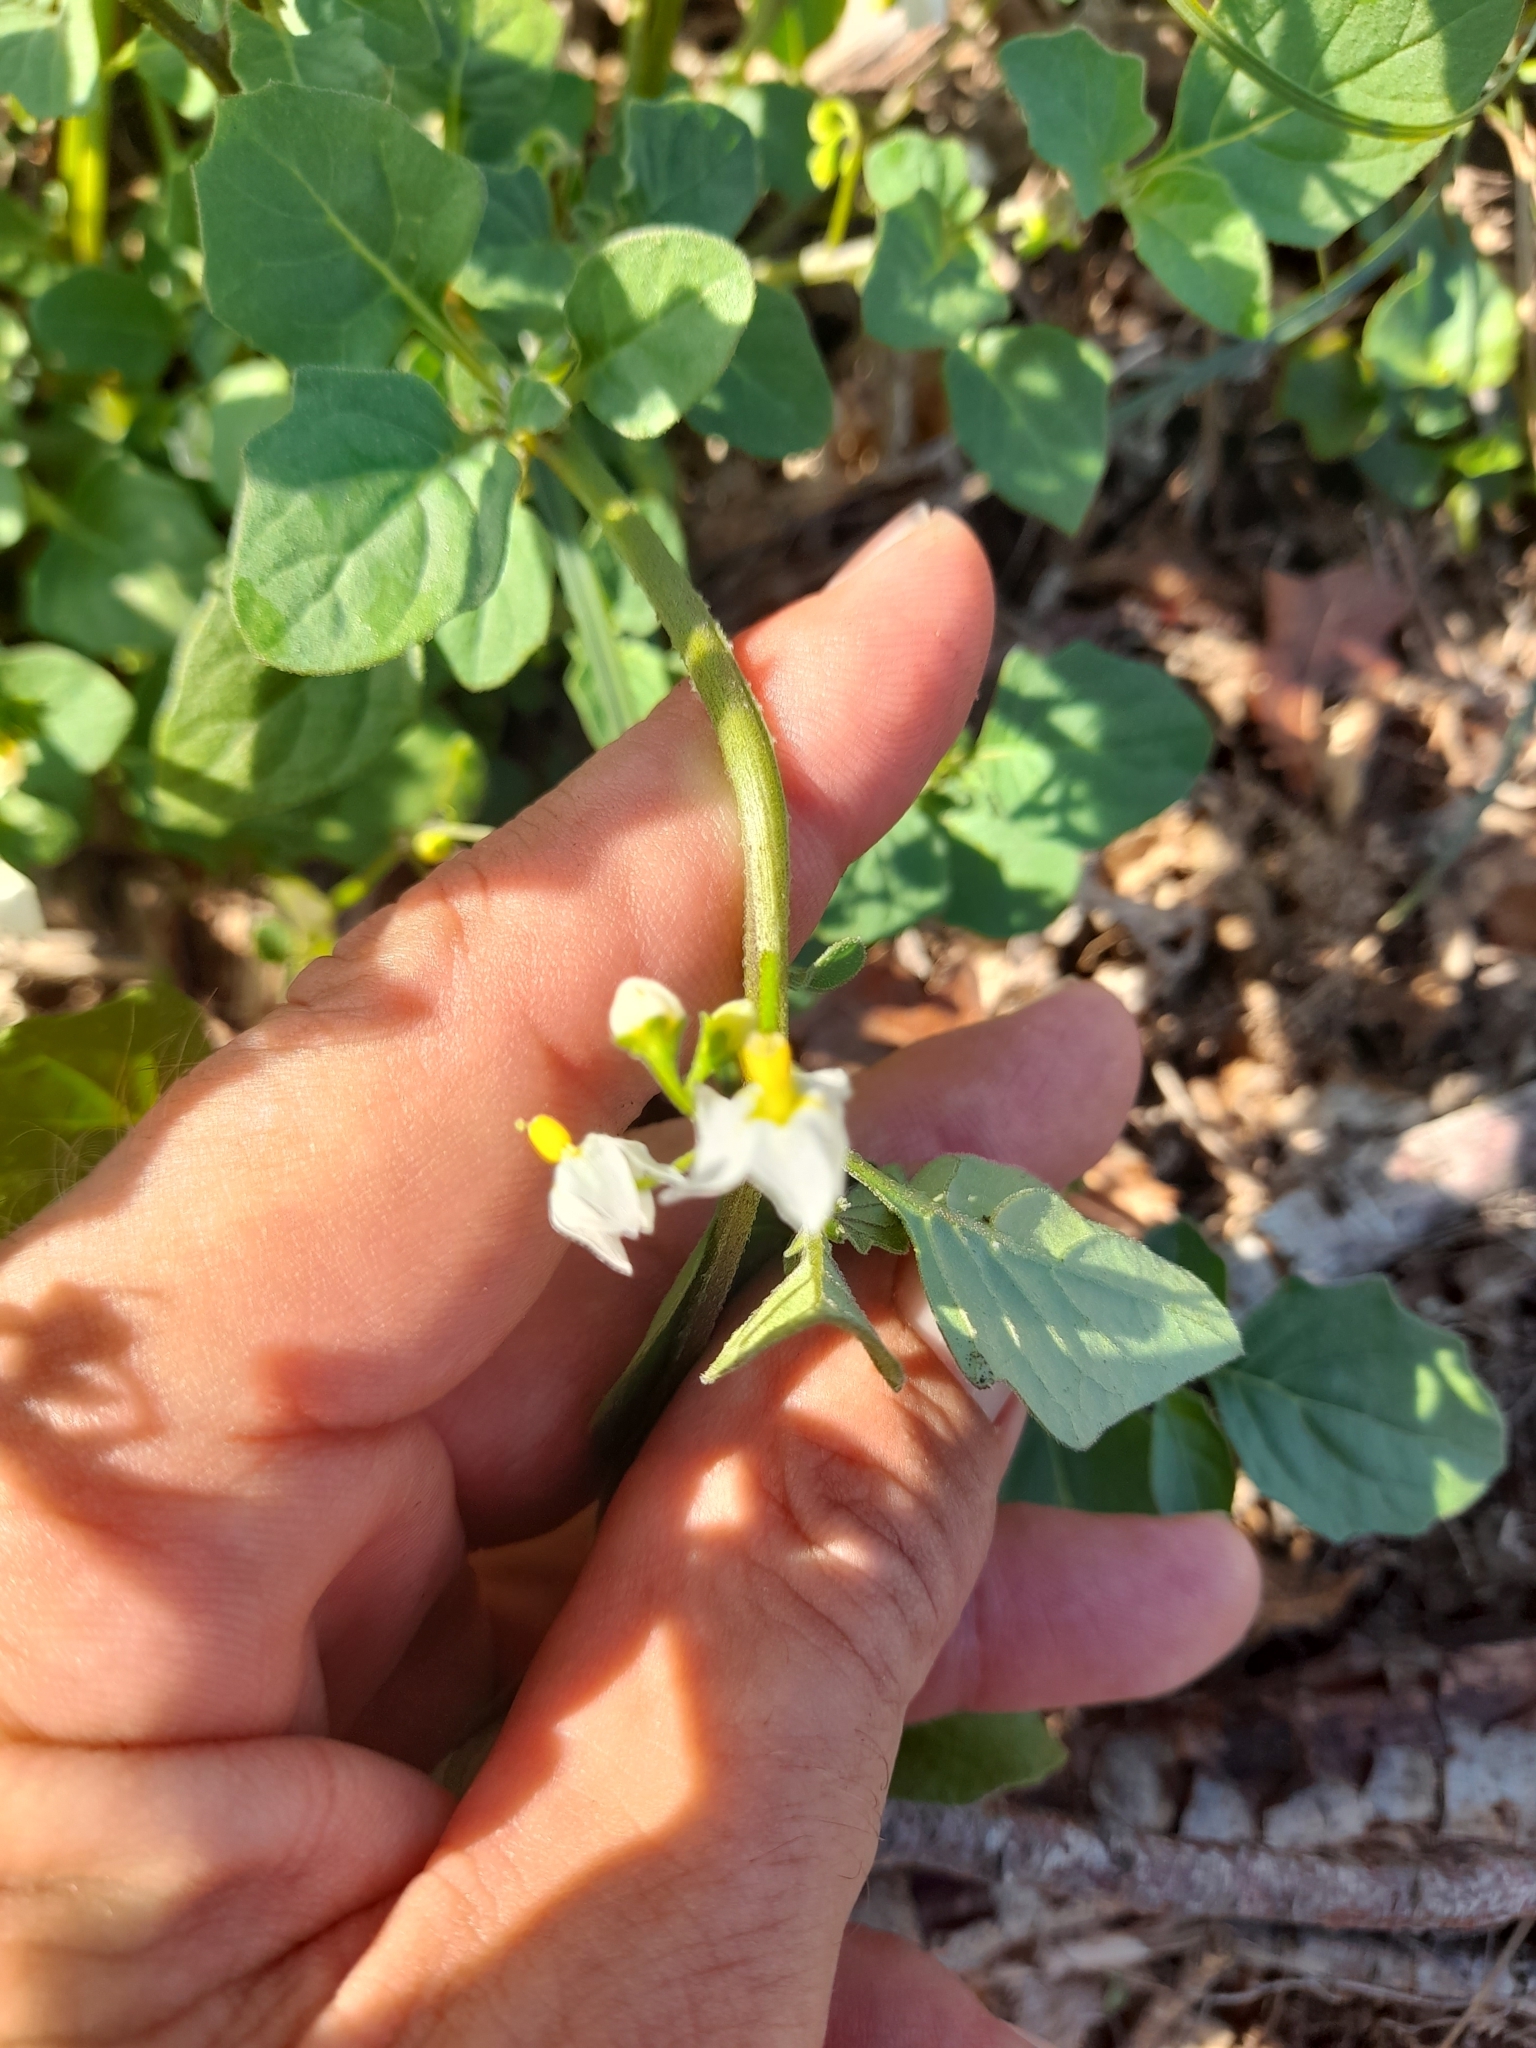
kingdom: Plantae
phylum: Tracheophyta
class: Magnoliopsida
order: Solanales
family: Solanaceae
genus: Solanum
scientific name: Solanum villosum
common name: Red nightshade
